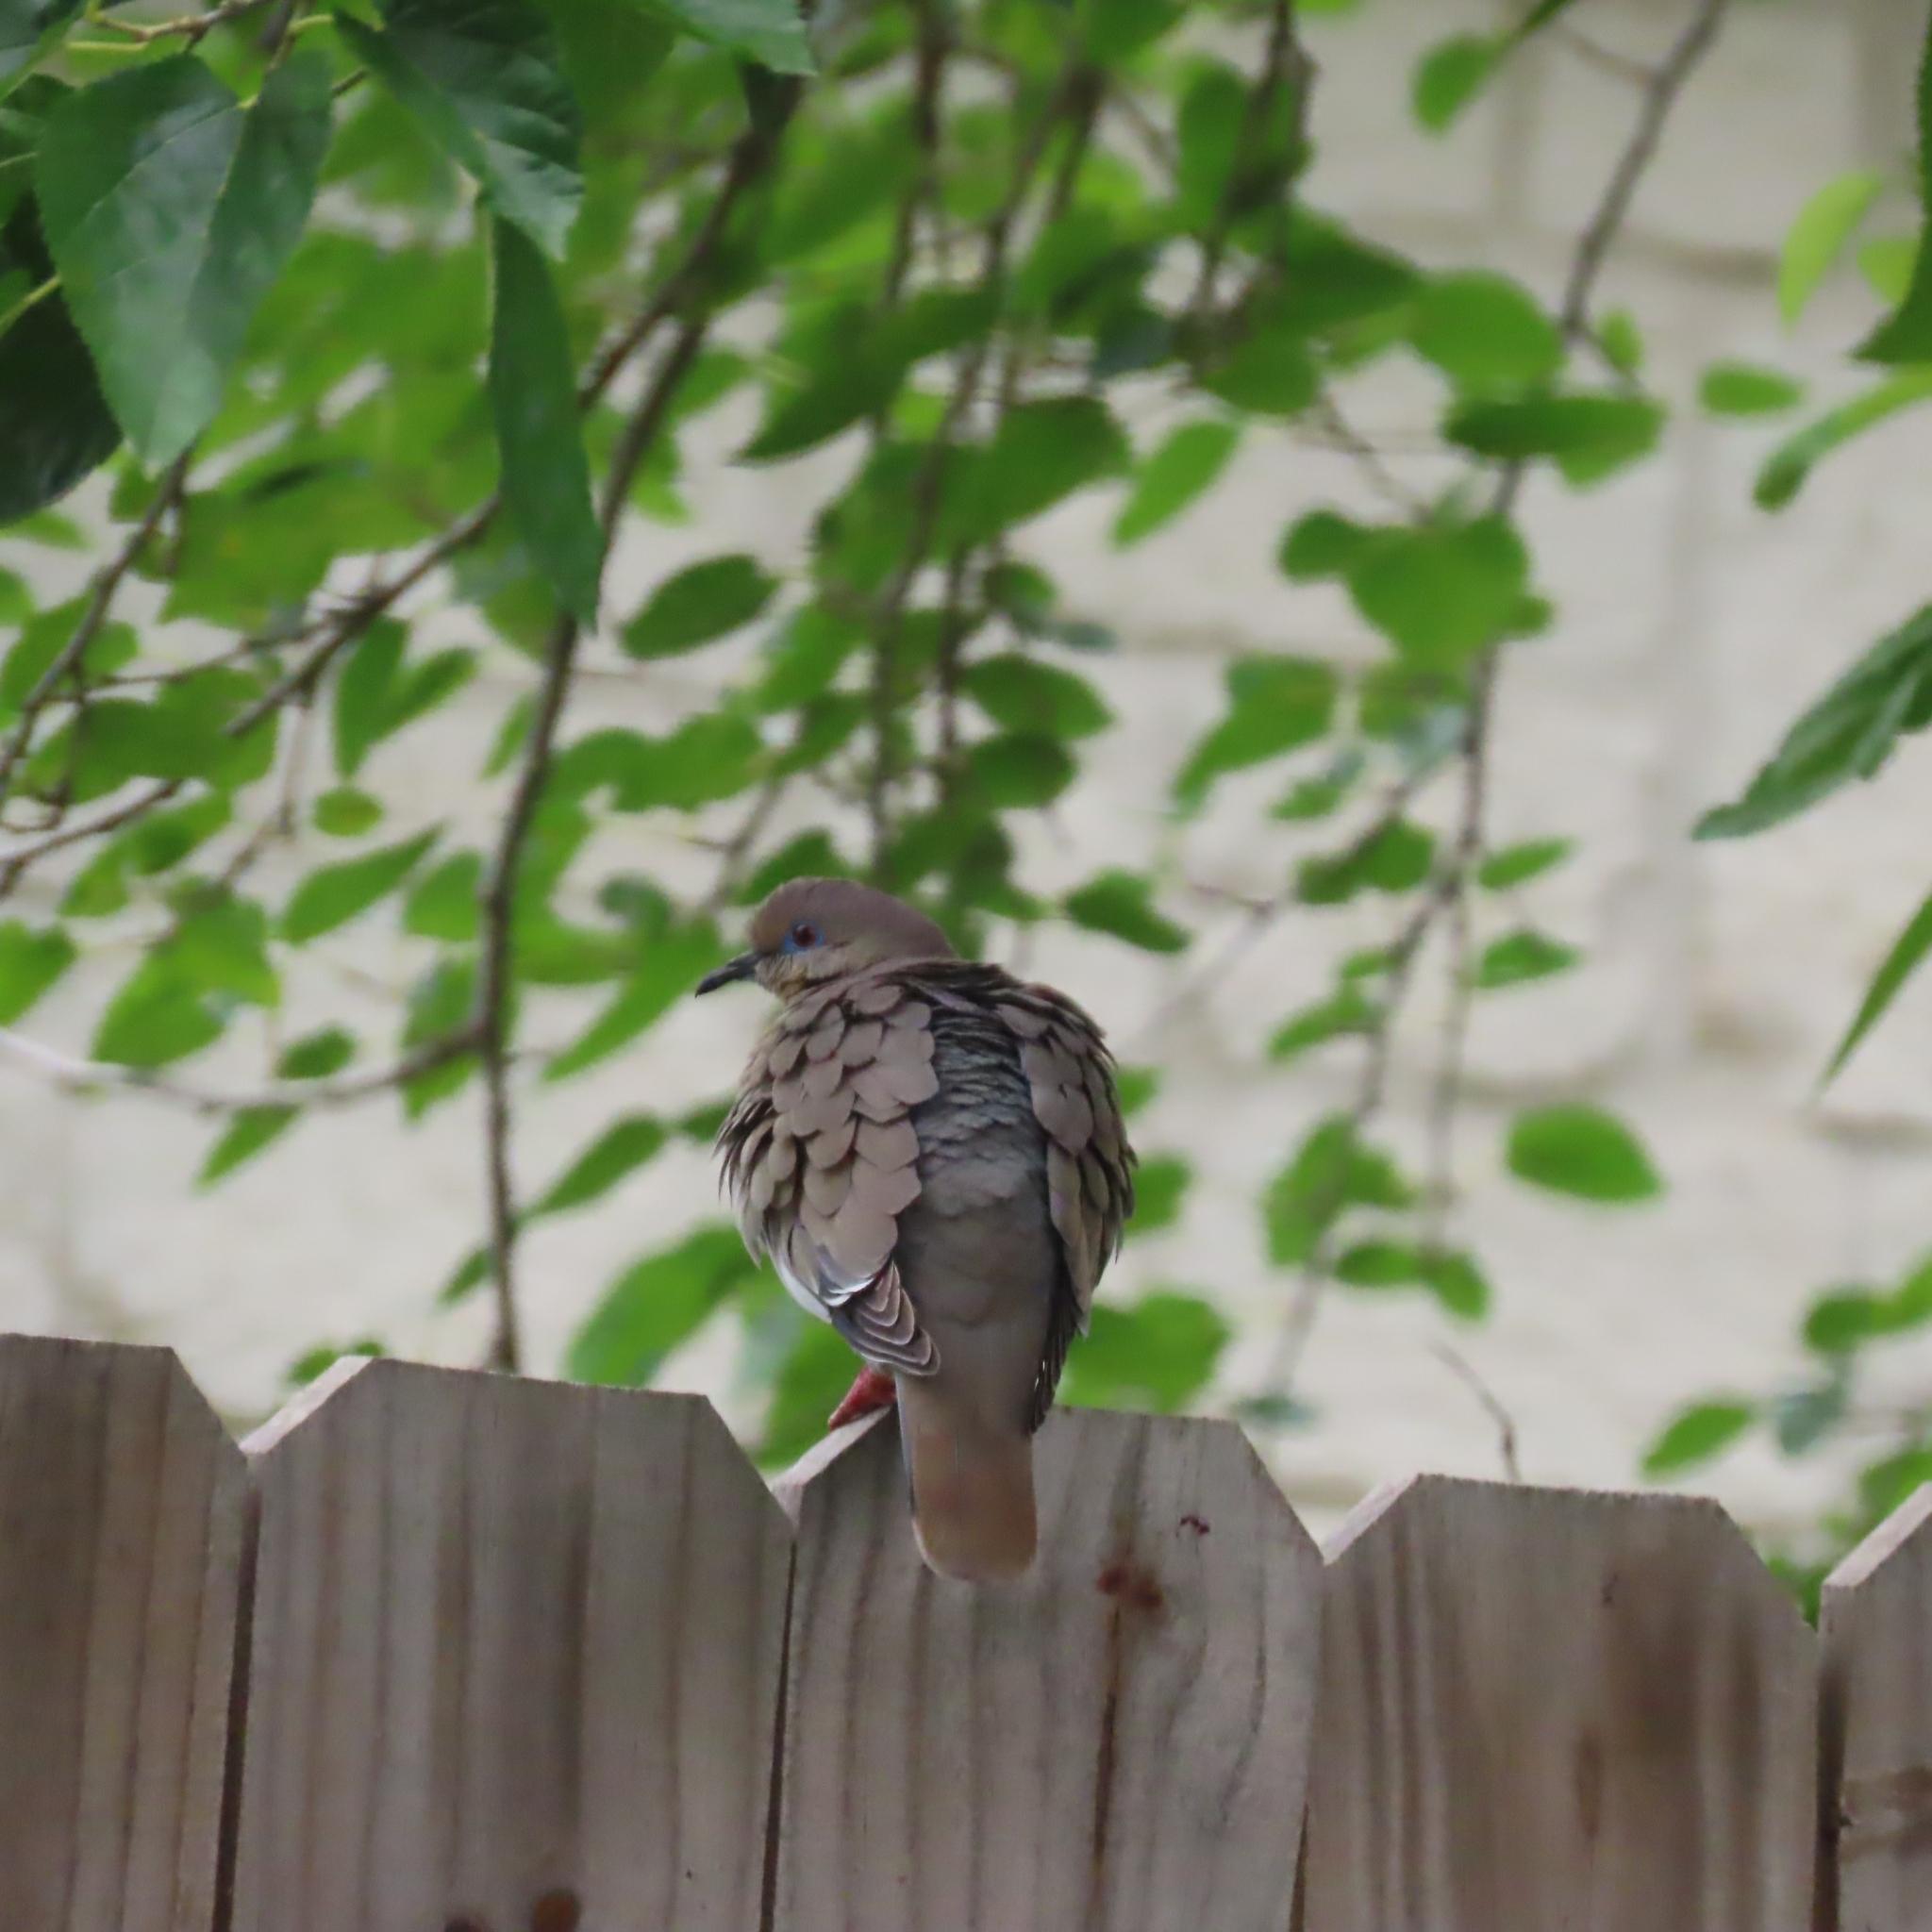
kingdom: Animalia
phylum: Chordata
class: Aves
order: Columbiformes
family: Columbidae
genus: Zenaida
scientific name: Zenaida asiatica
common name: White-winged dove
